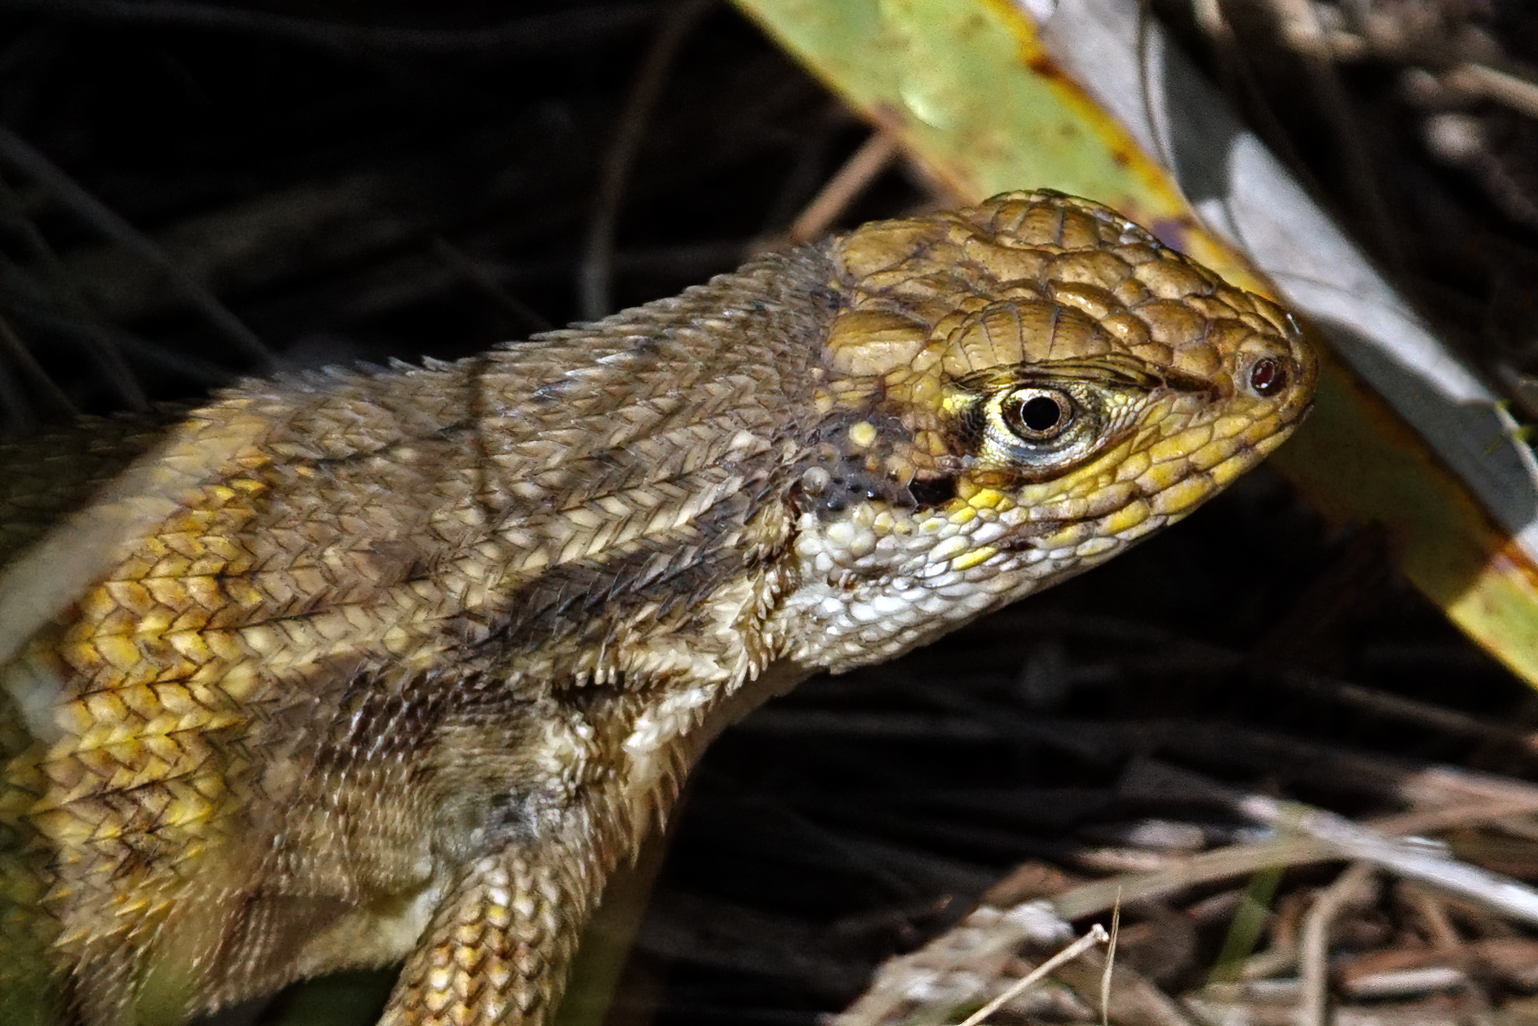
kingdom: Animalia
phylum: Chordata
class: Squamata
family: Leiocephalidae
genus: Leiocephalus
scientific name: Leiocephalus carinatus
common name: Northern curly-tailed lizard
